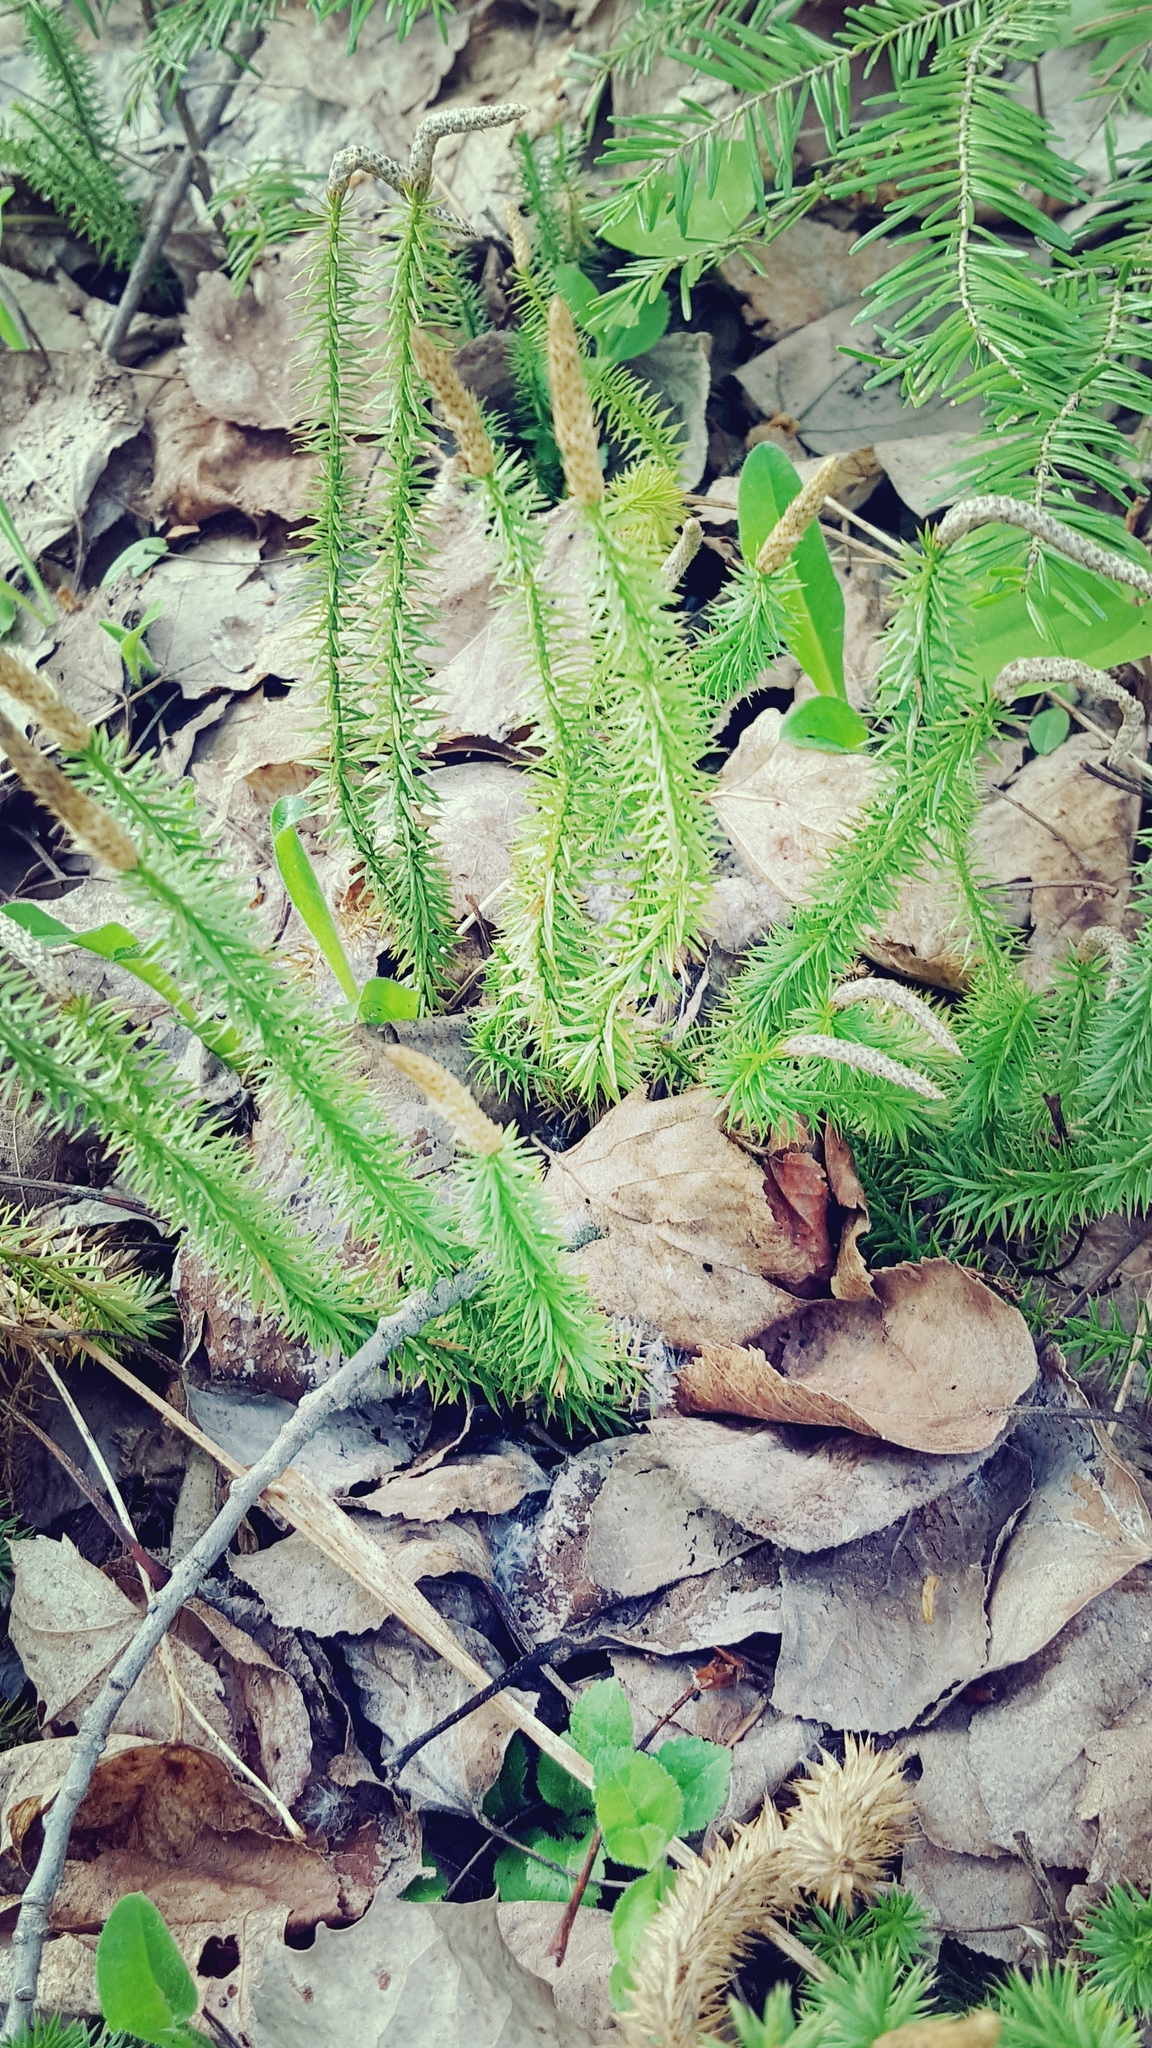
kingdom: Plantae
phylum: Tracheophyta
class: Lycopodiopsida
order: Lycopodiales
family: Lycopodiaceae
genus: Spinulum
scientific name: Spinulum annotinum
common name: Interrupted club-moss
